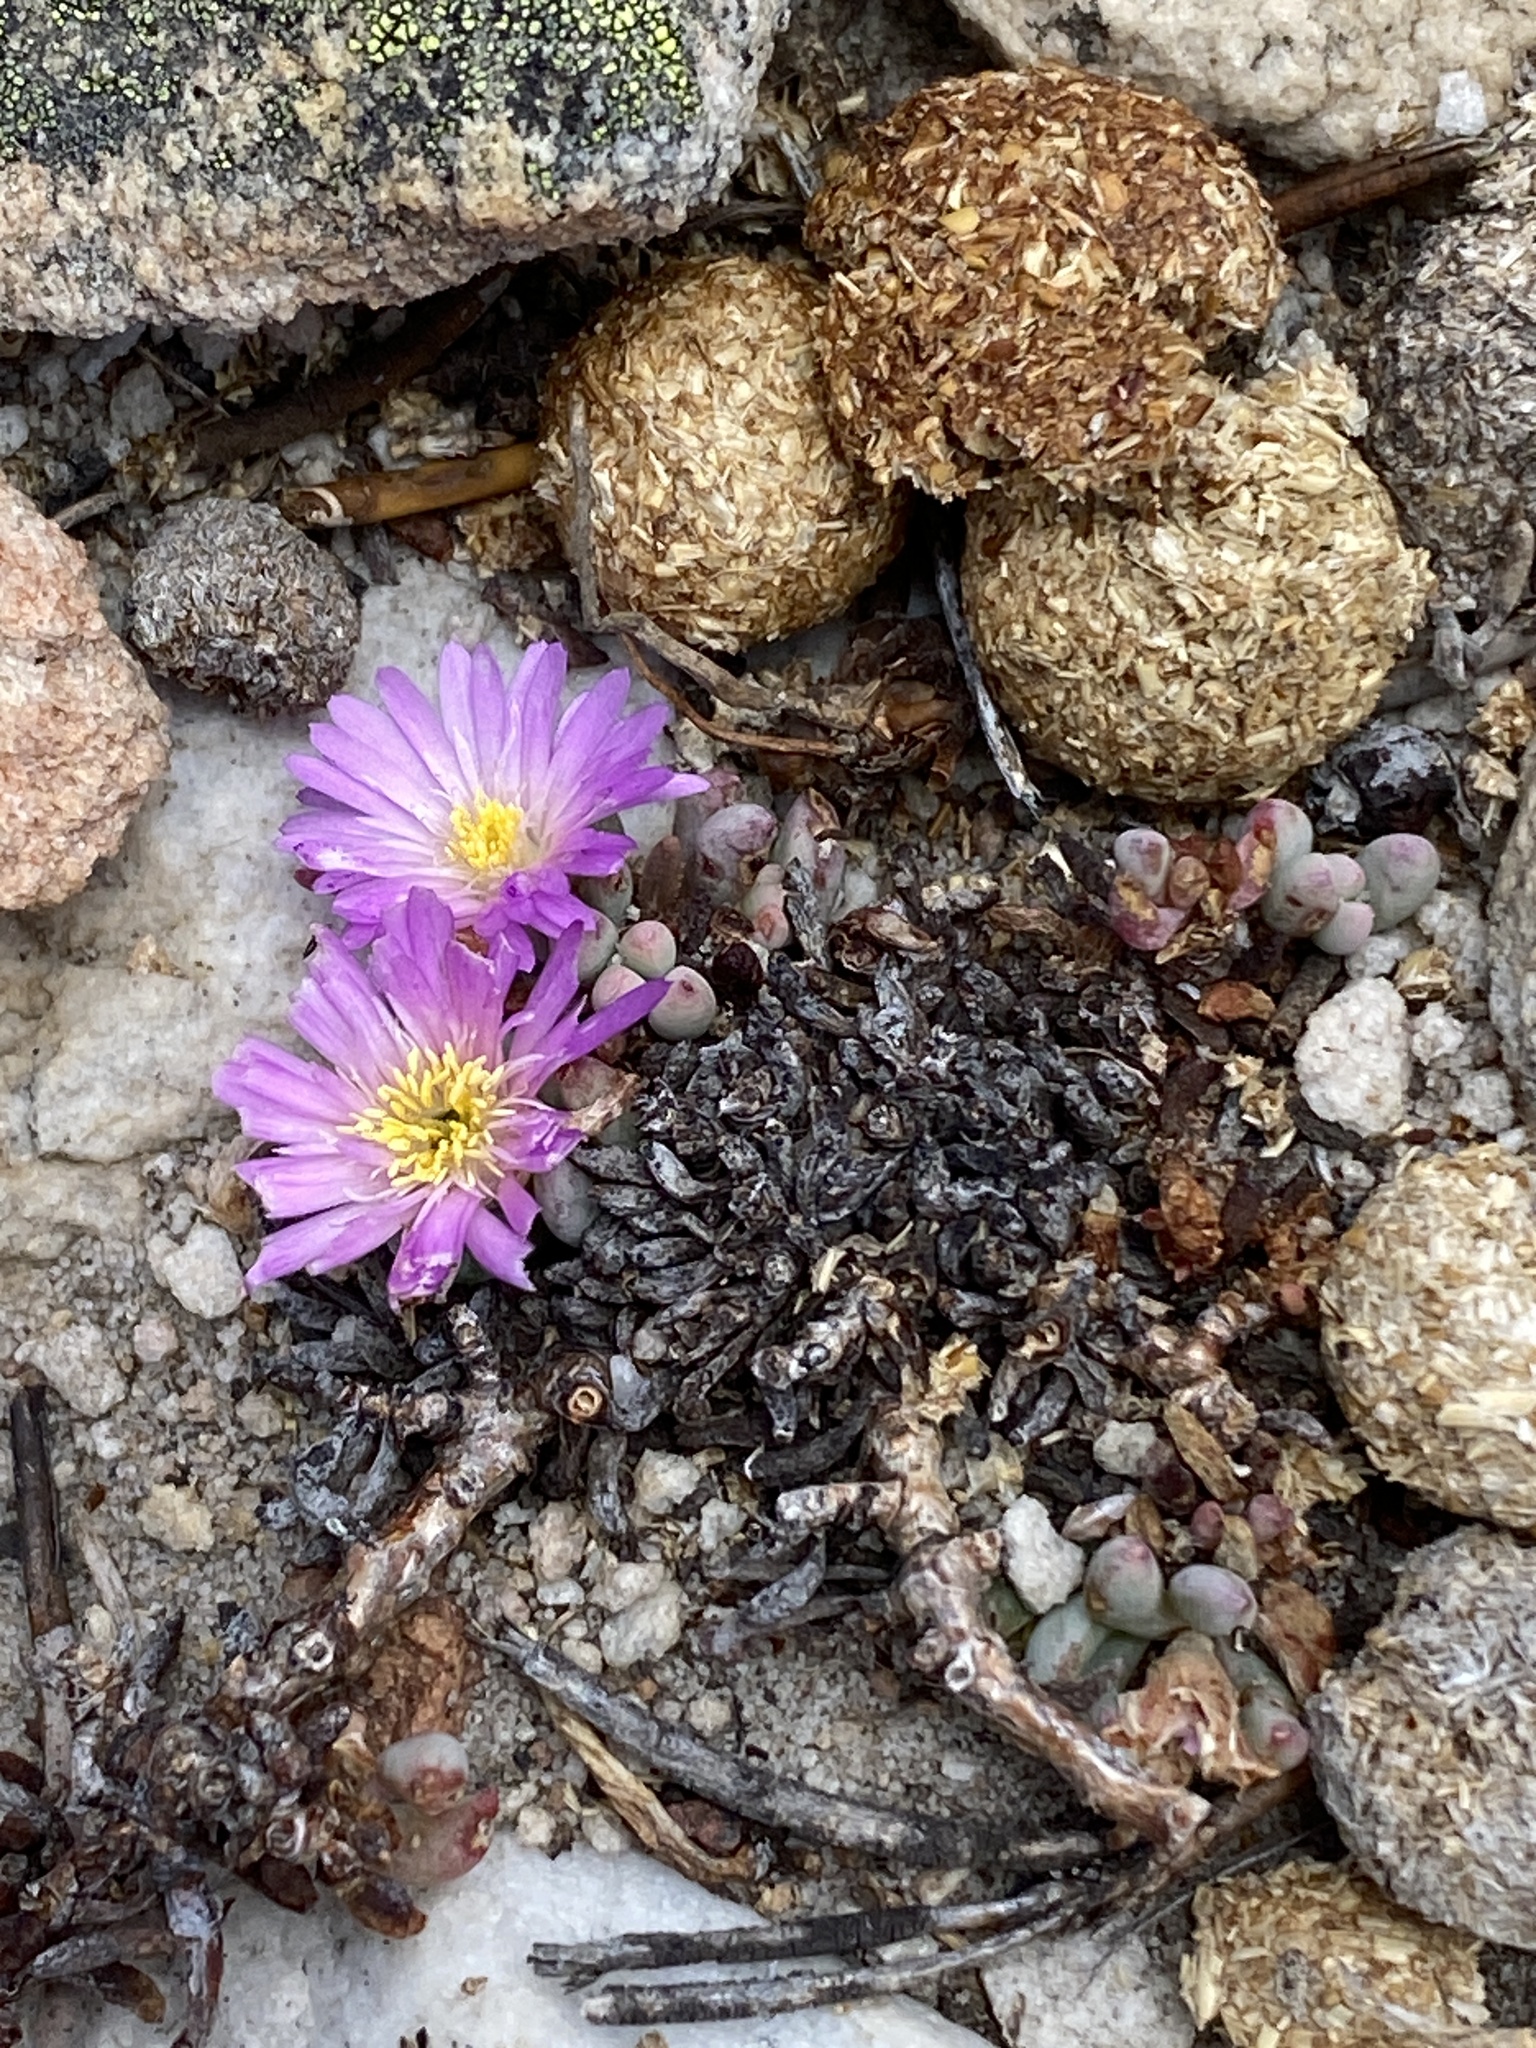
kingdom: Plantae
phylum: Tracheophyta
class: Magnoliopsida
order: Caryophyllales
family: Aizoaceae
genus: Esterhuysenia
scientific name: Esterhuysenia alpina
